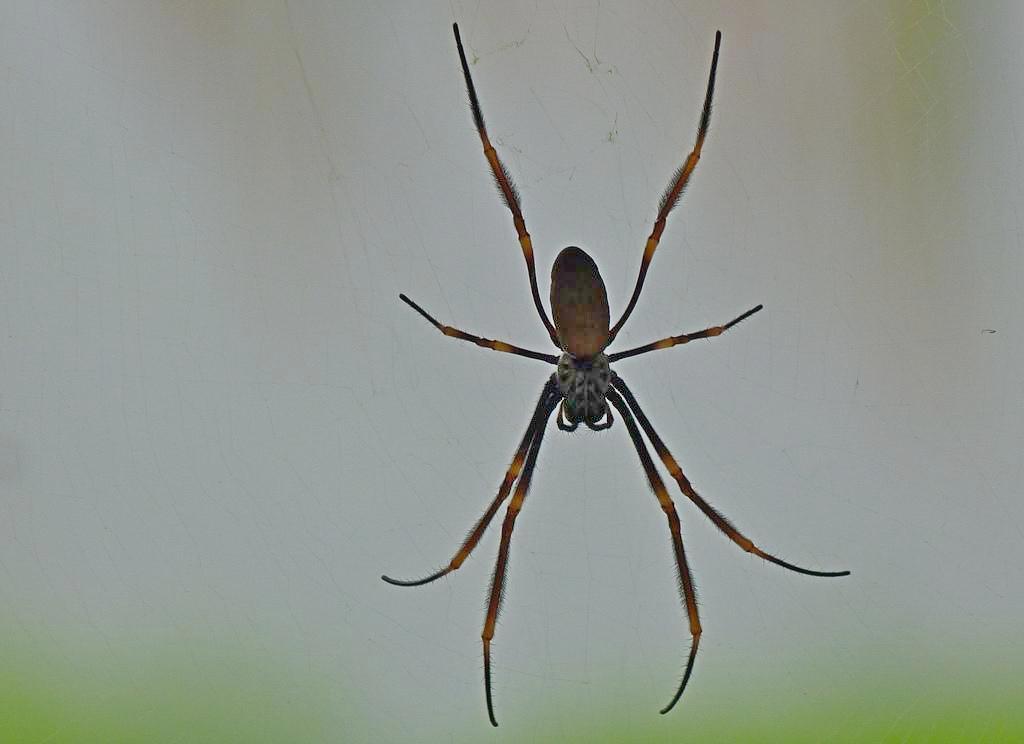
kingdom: Animalia
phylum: Arthropoda
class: Arachnida
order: Araneae
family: Araneidae
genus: Trichonephila
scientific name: Trichonephila plumipes
